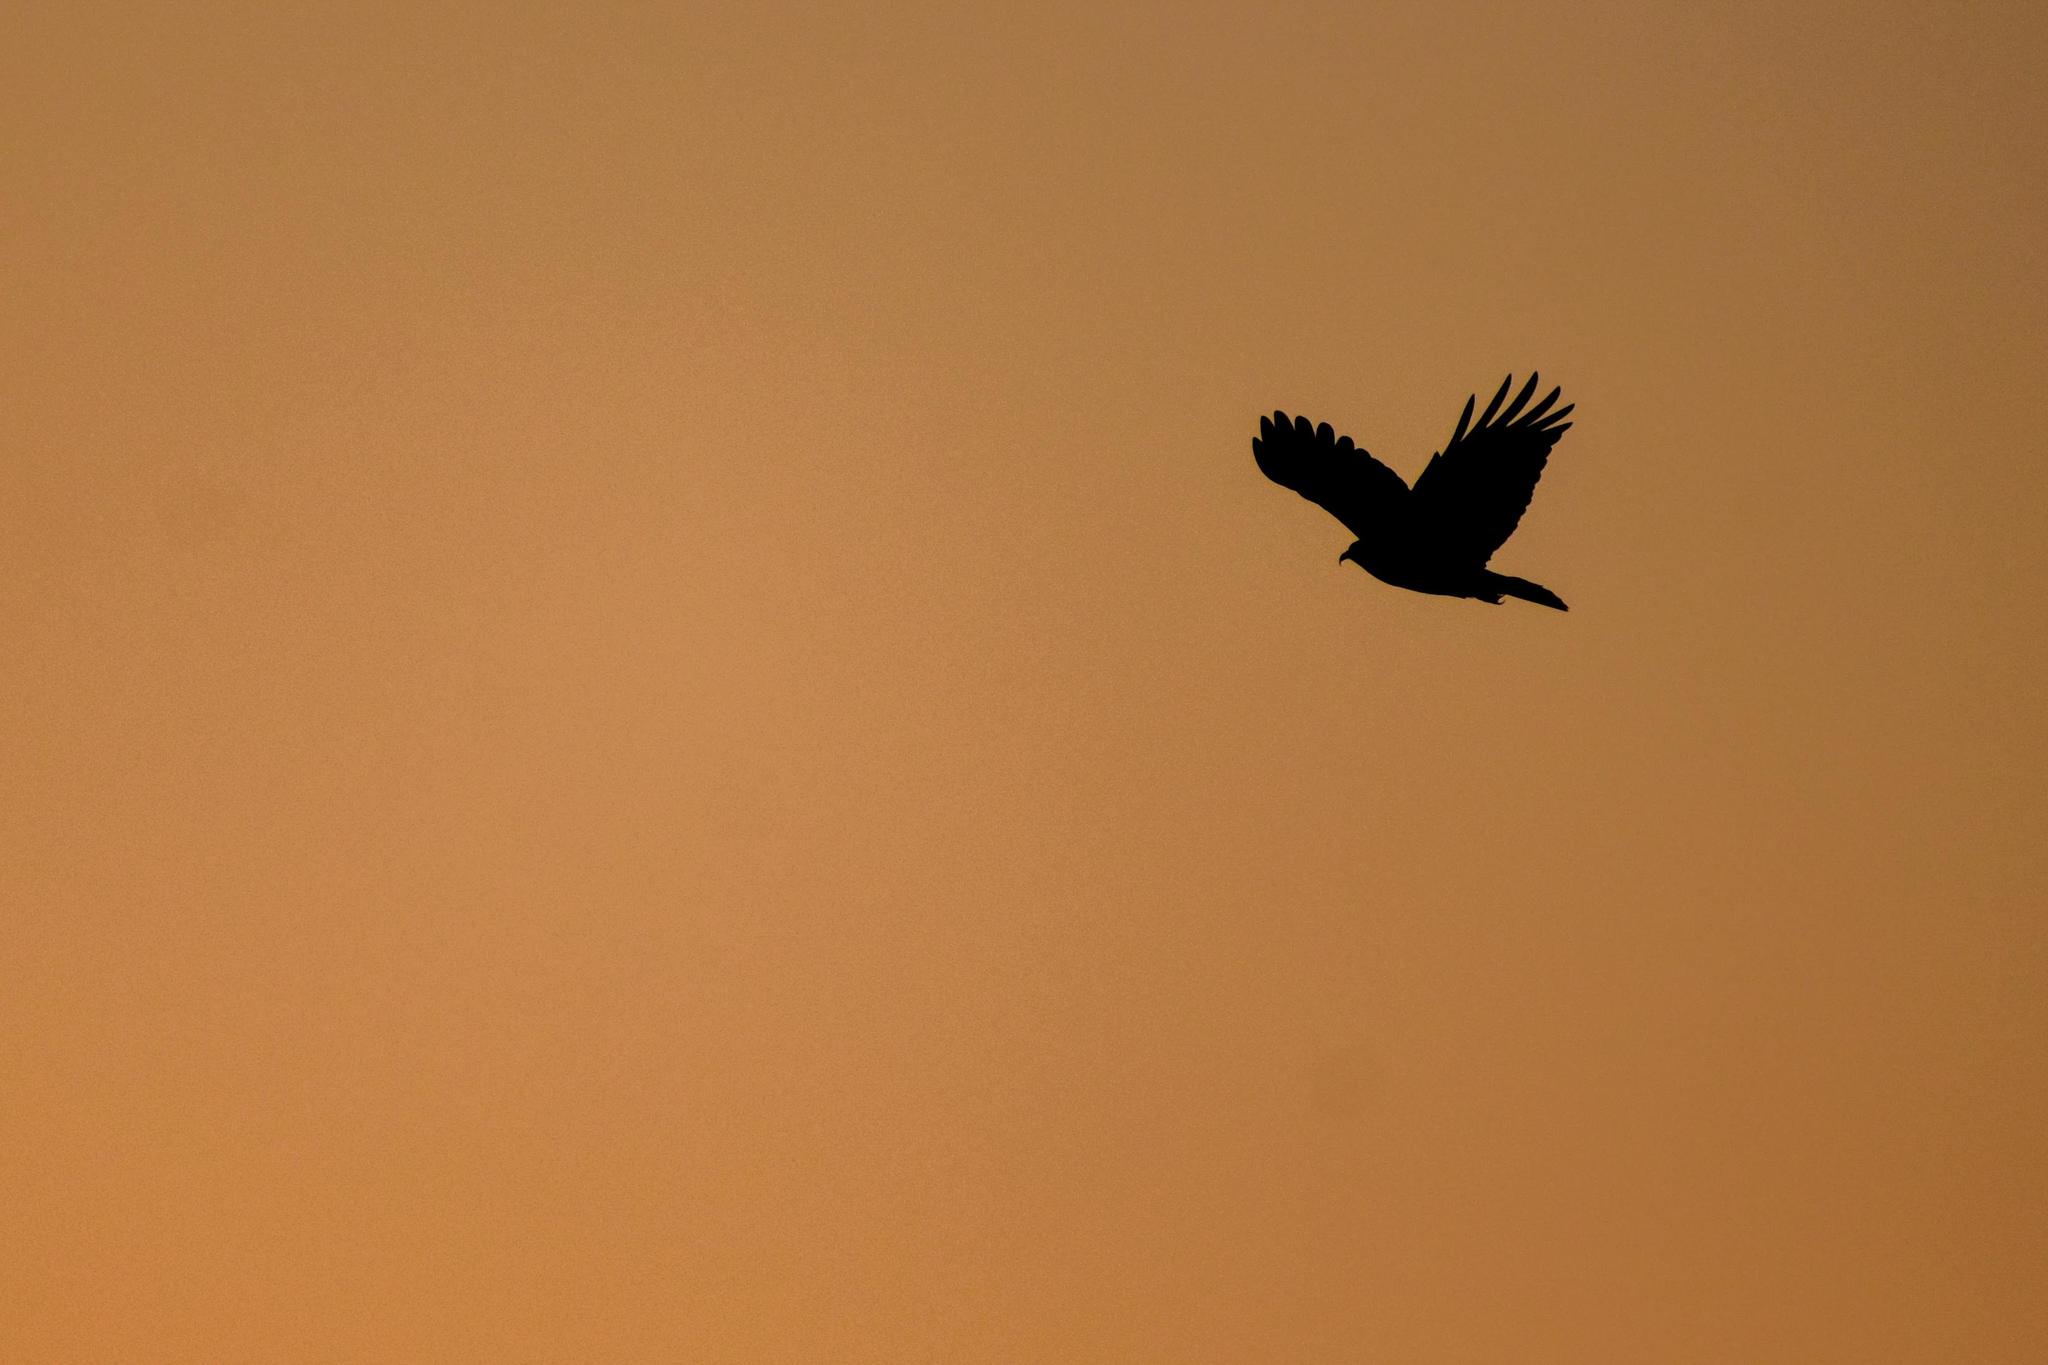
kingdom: Animalia
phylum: Chordata
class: Aves
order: Accipitriformes
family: Accipitridae
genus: Rostrhamus
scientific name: Rostrhamus sociabilis
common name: Snail kite
